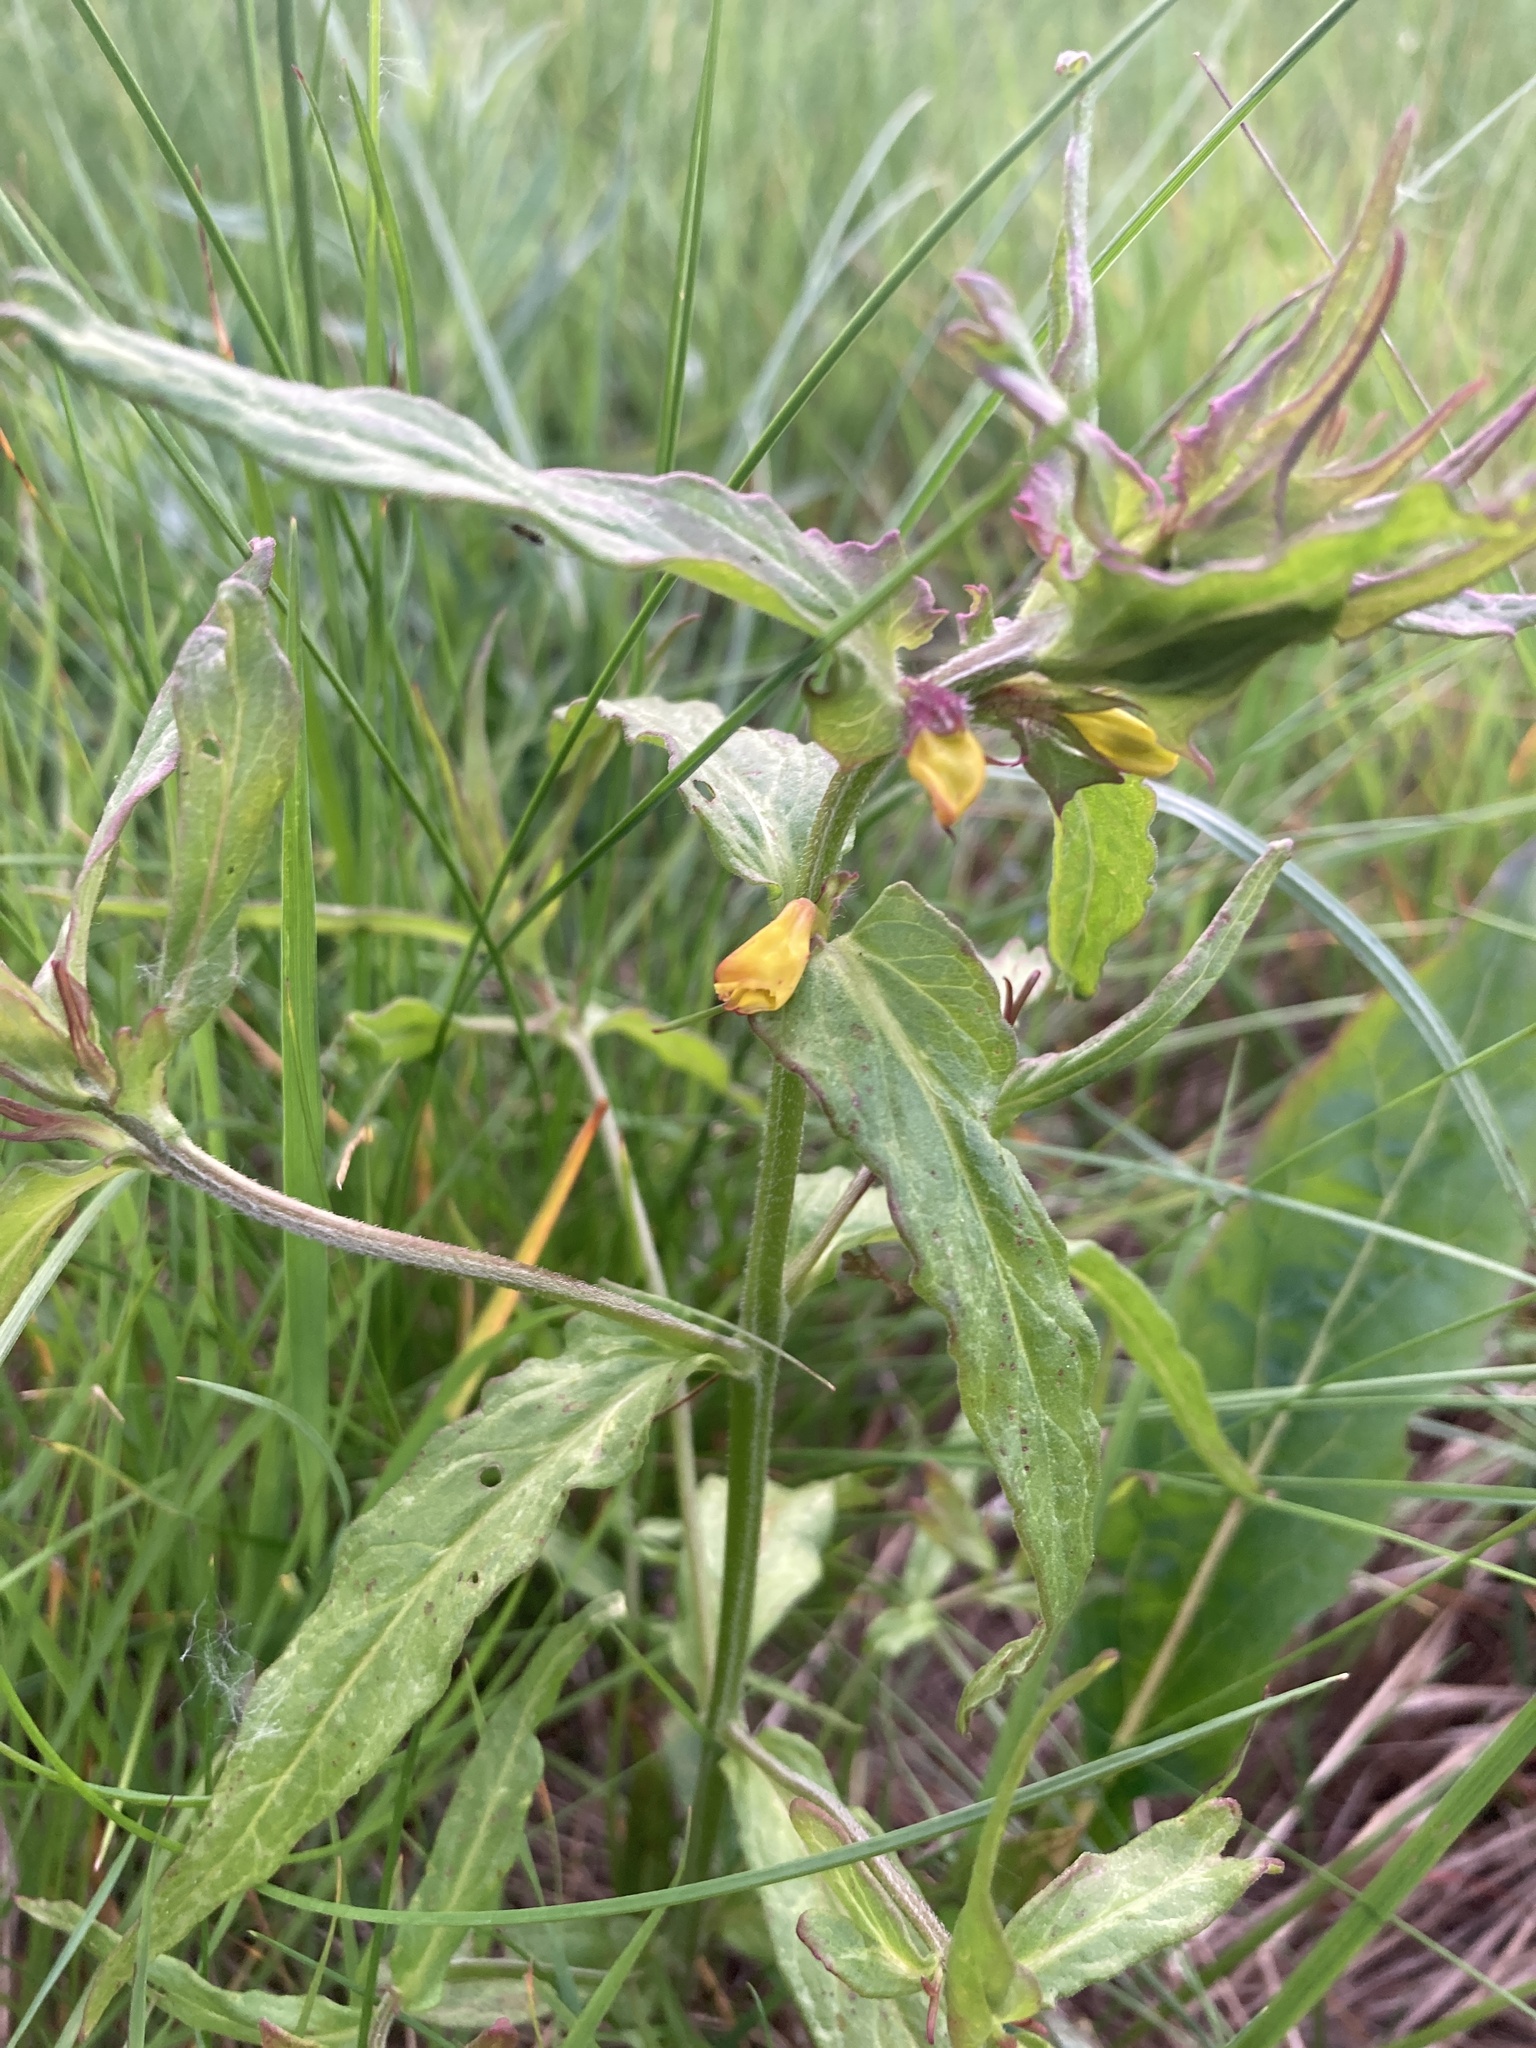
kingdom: Plantae
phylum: Tracheophyta
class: Magnoliopsida
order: Lamiales
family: Orobanchaceae
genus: Melampyrum
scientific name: Melampyrum nemorosum
